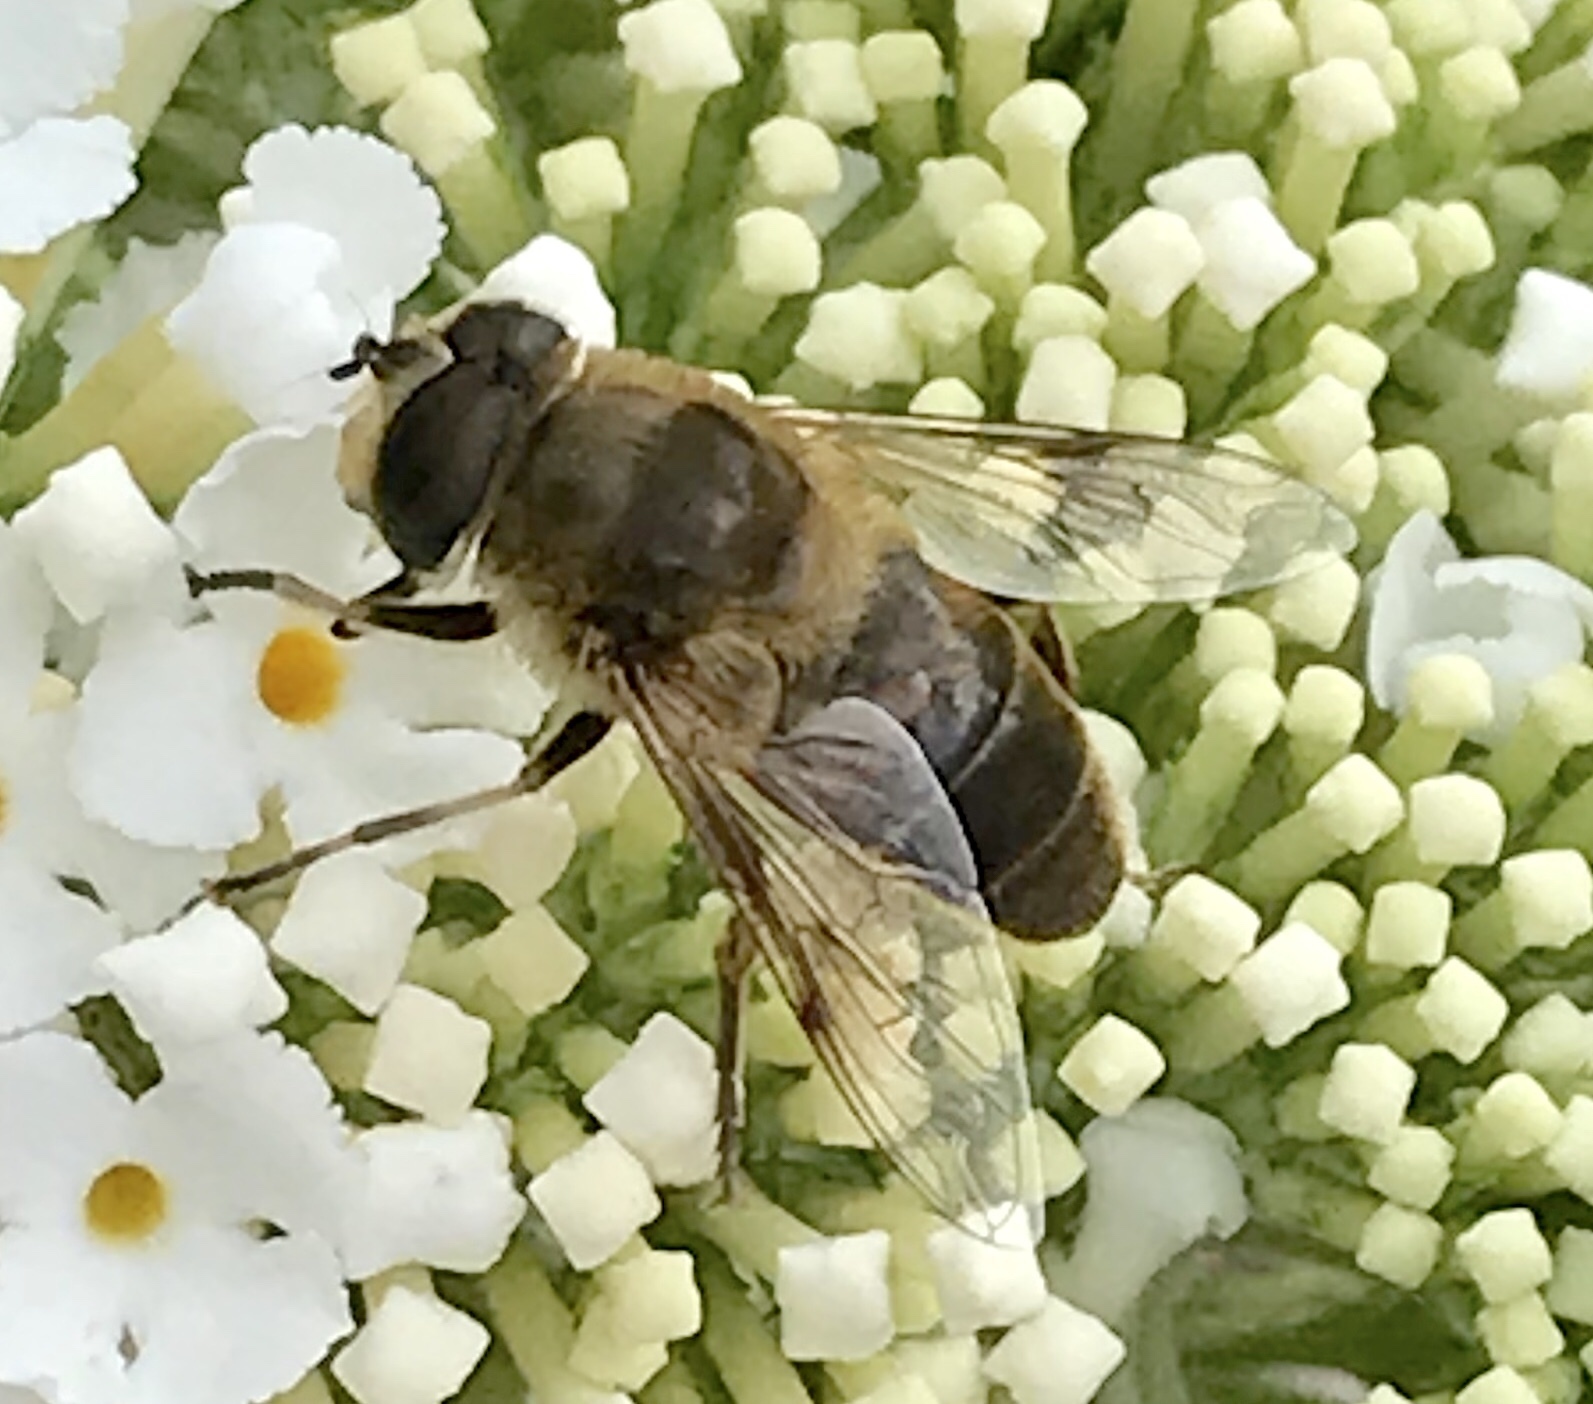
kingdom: Animalia
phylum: Arthropoda
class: Insecta
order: Diptera
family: Syrphidae
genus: Eristalis
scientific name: Eristalis tenax
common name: Drone fly
